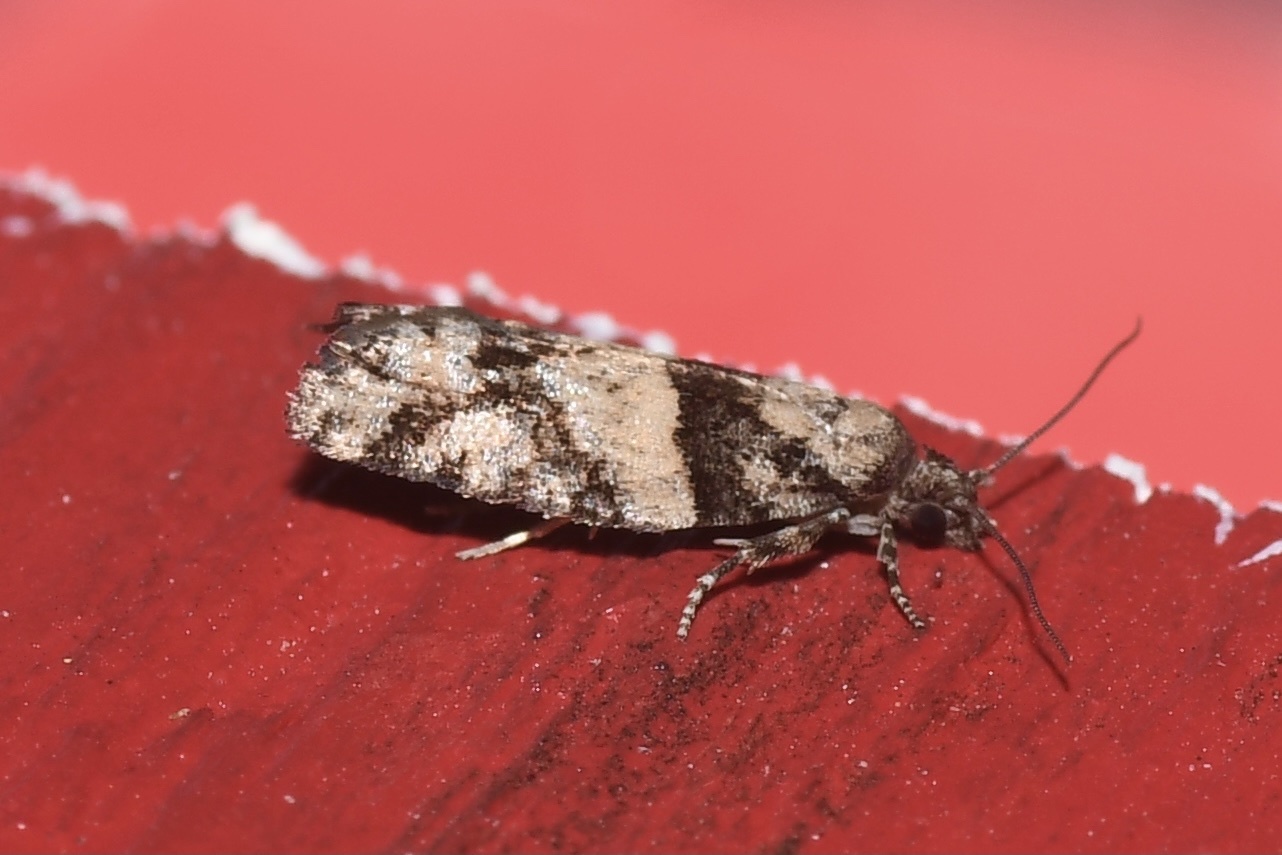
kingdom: Animalia
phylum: Arthropoda
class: Insecta
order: Lepidoptera
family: Tortricidae
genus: Epinotia
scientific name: Epinotia radicana
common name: Red-striped needleworm moth
